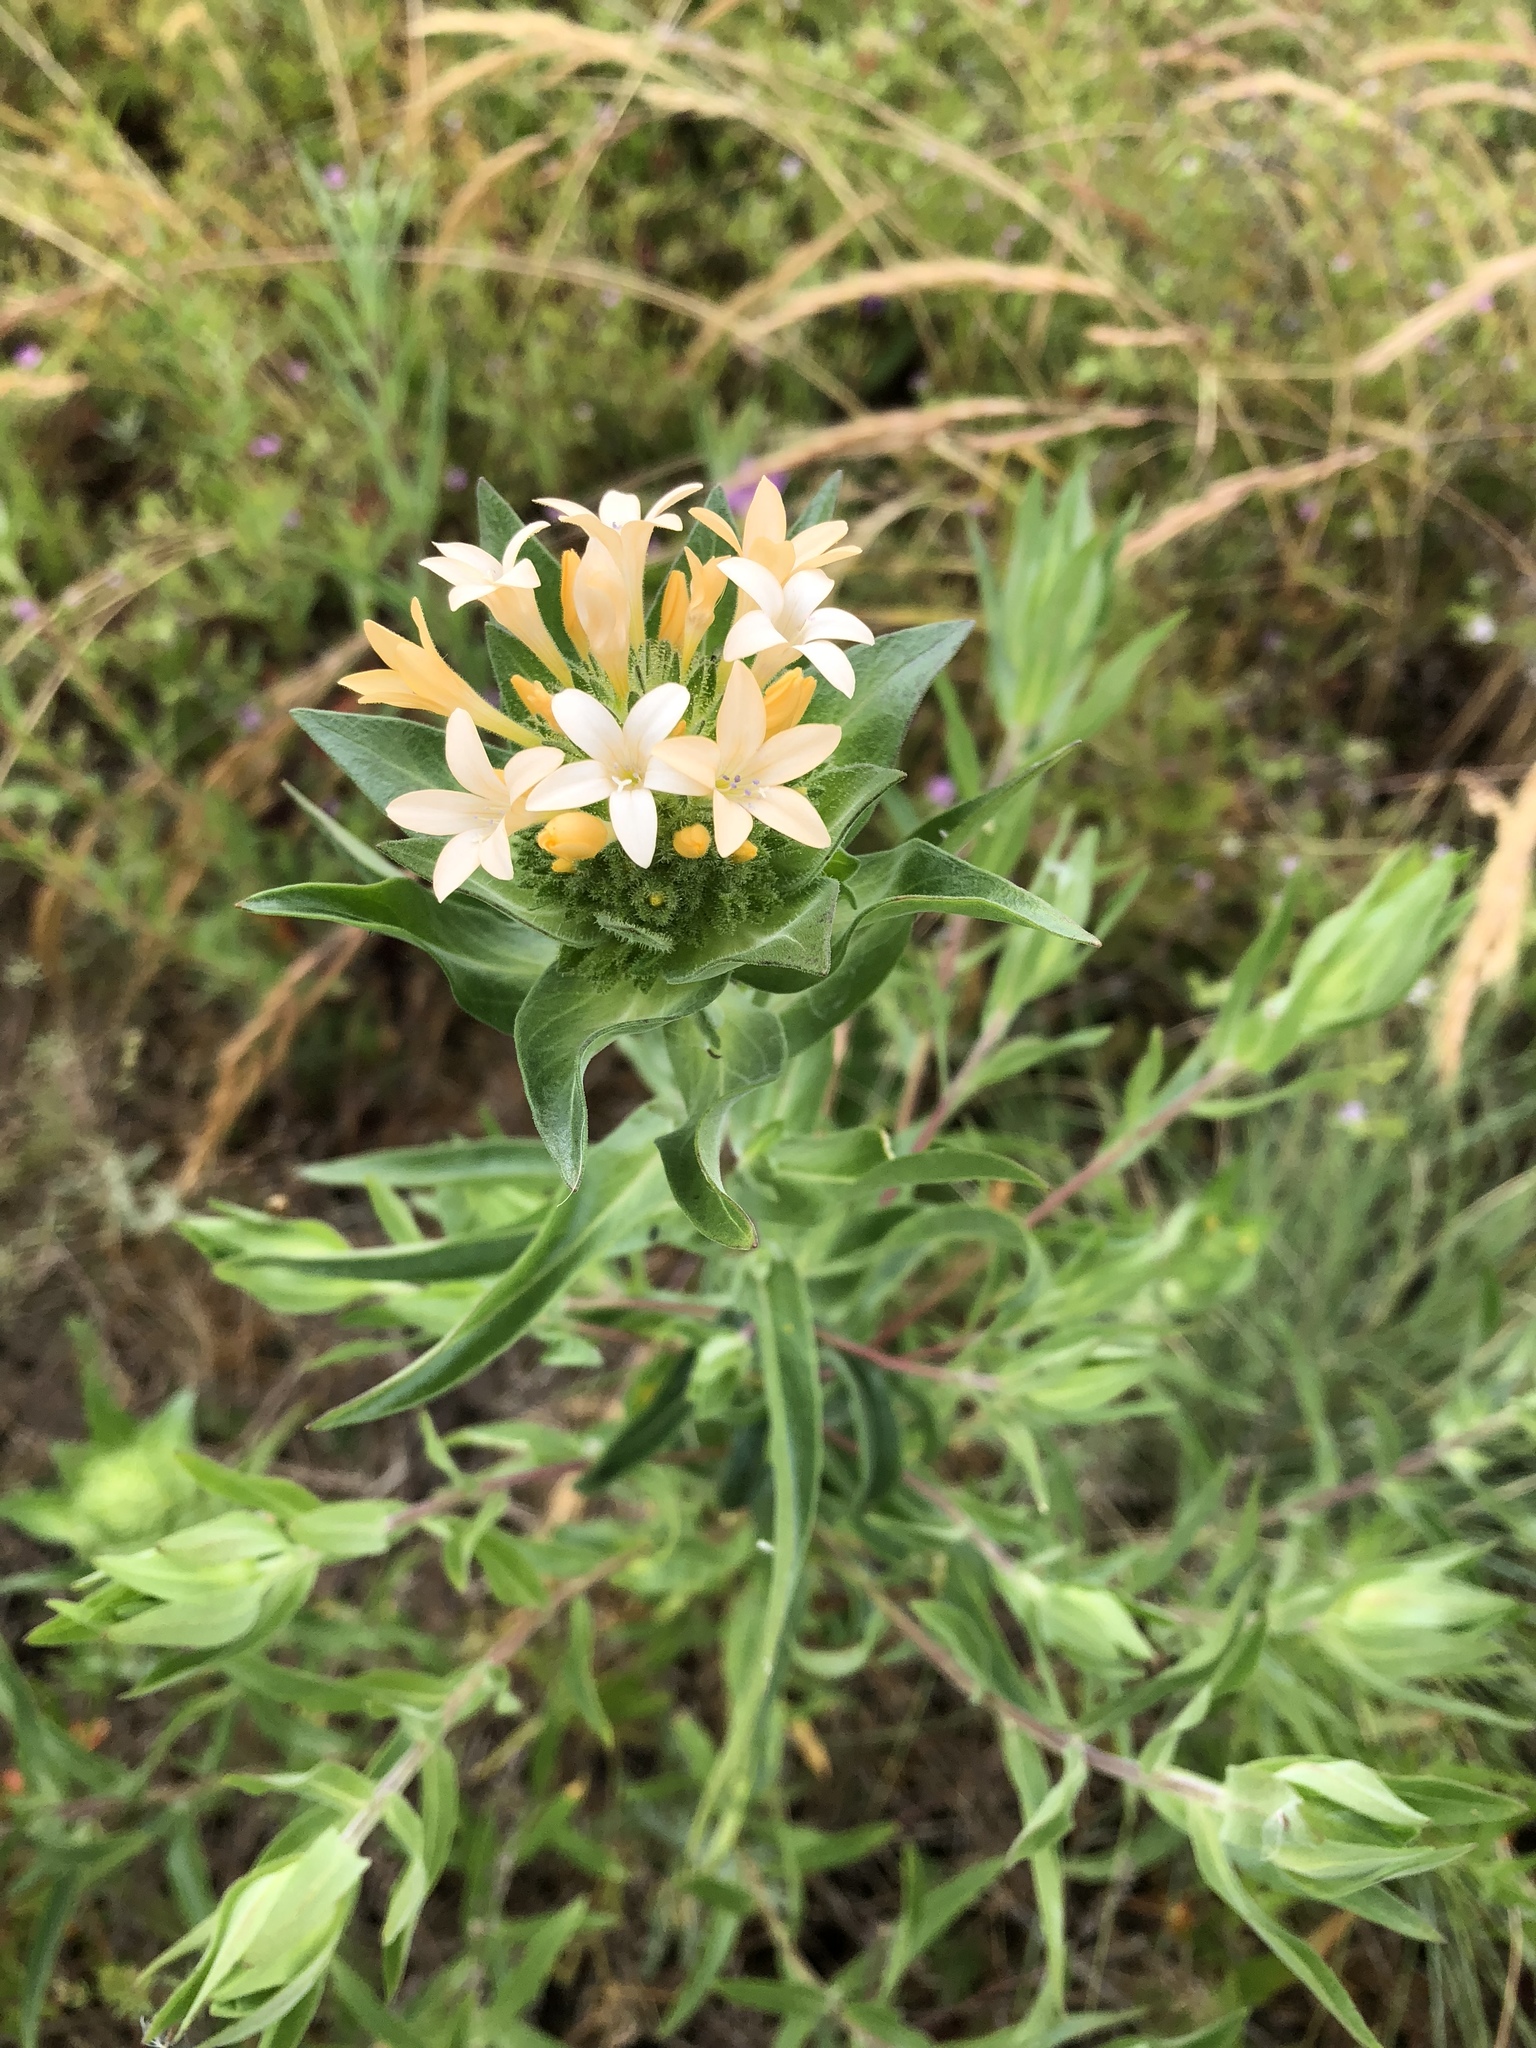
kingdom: Plantae
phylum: Tracheophyta
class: Magnoliopsida
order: Ericales
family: Polemoniaceae
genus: Collomia
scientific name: Collomia grandiflora
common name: California strawflower
